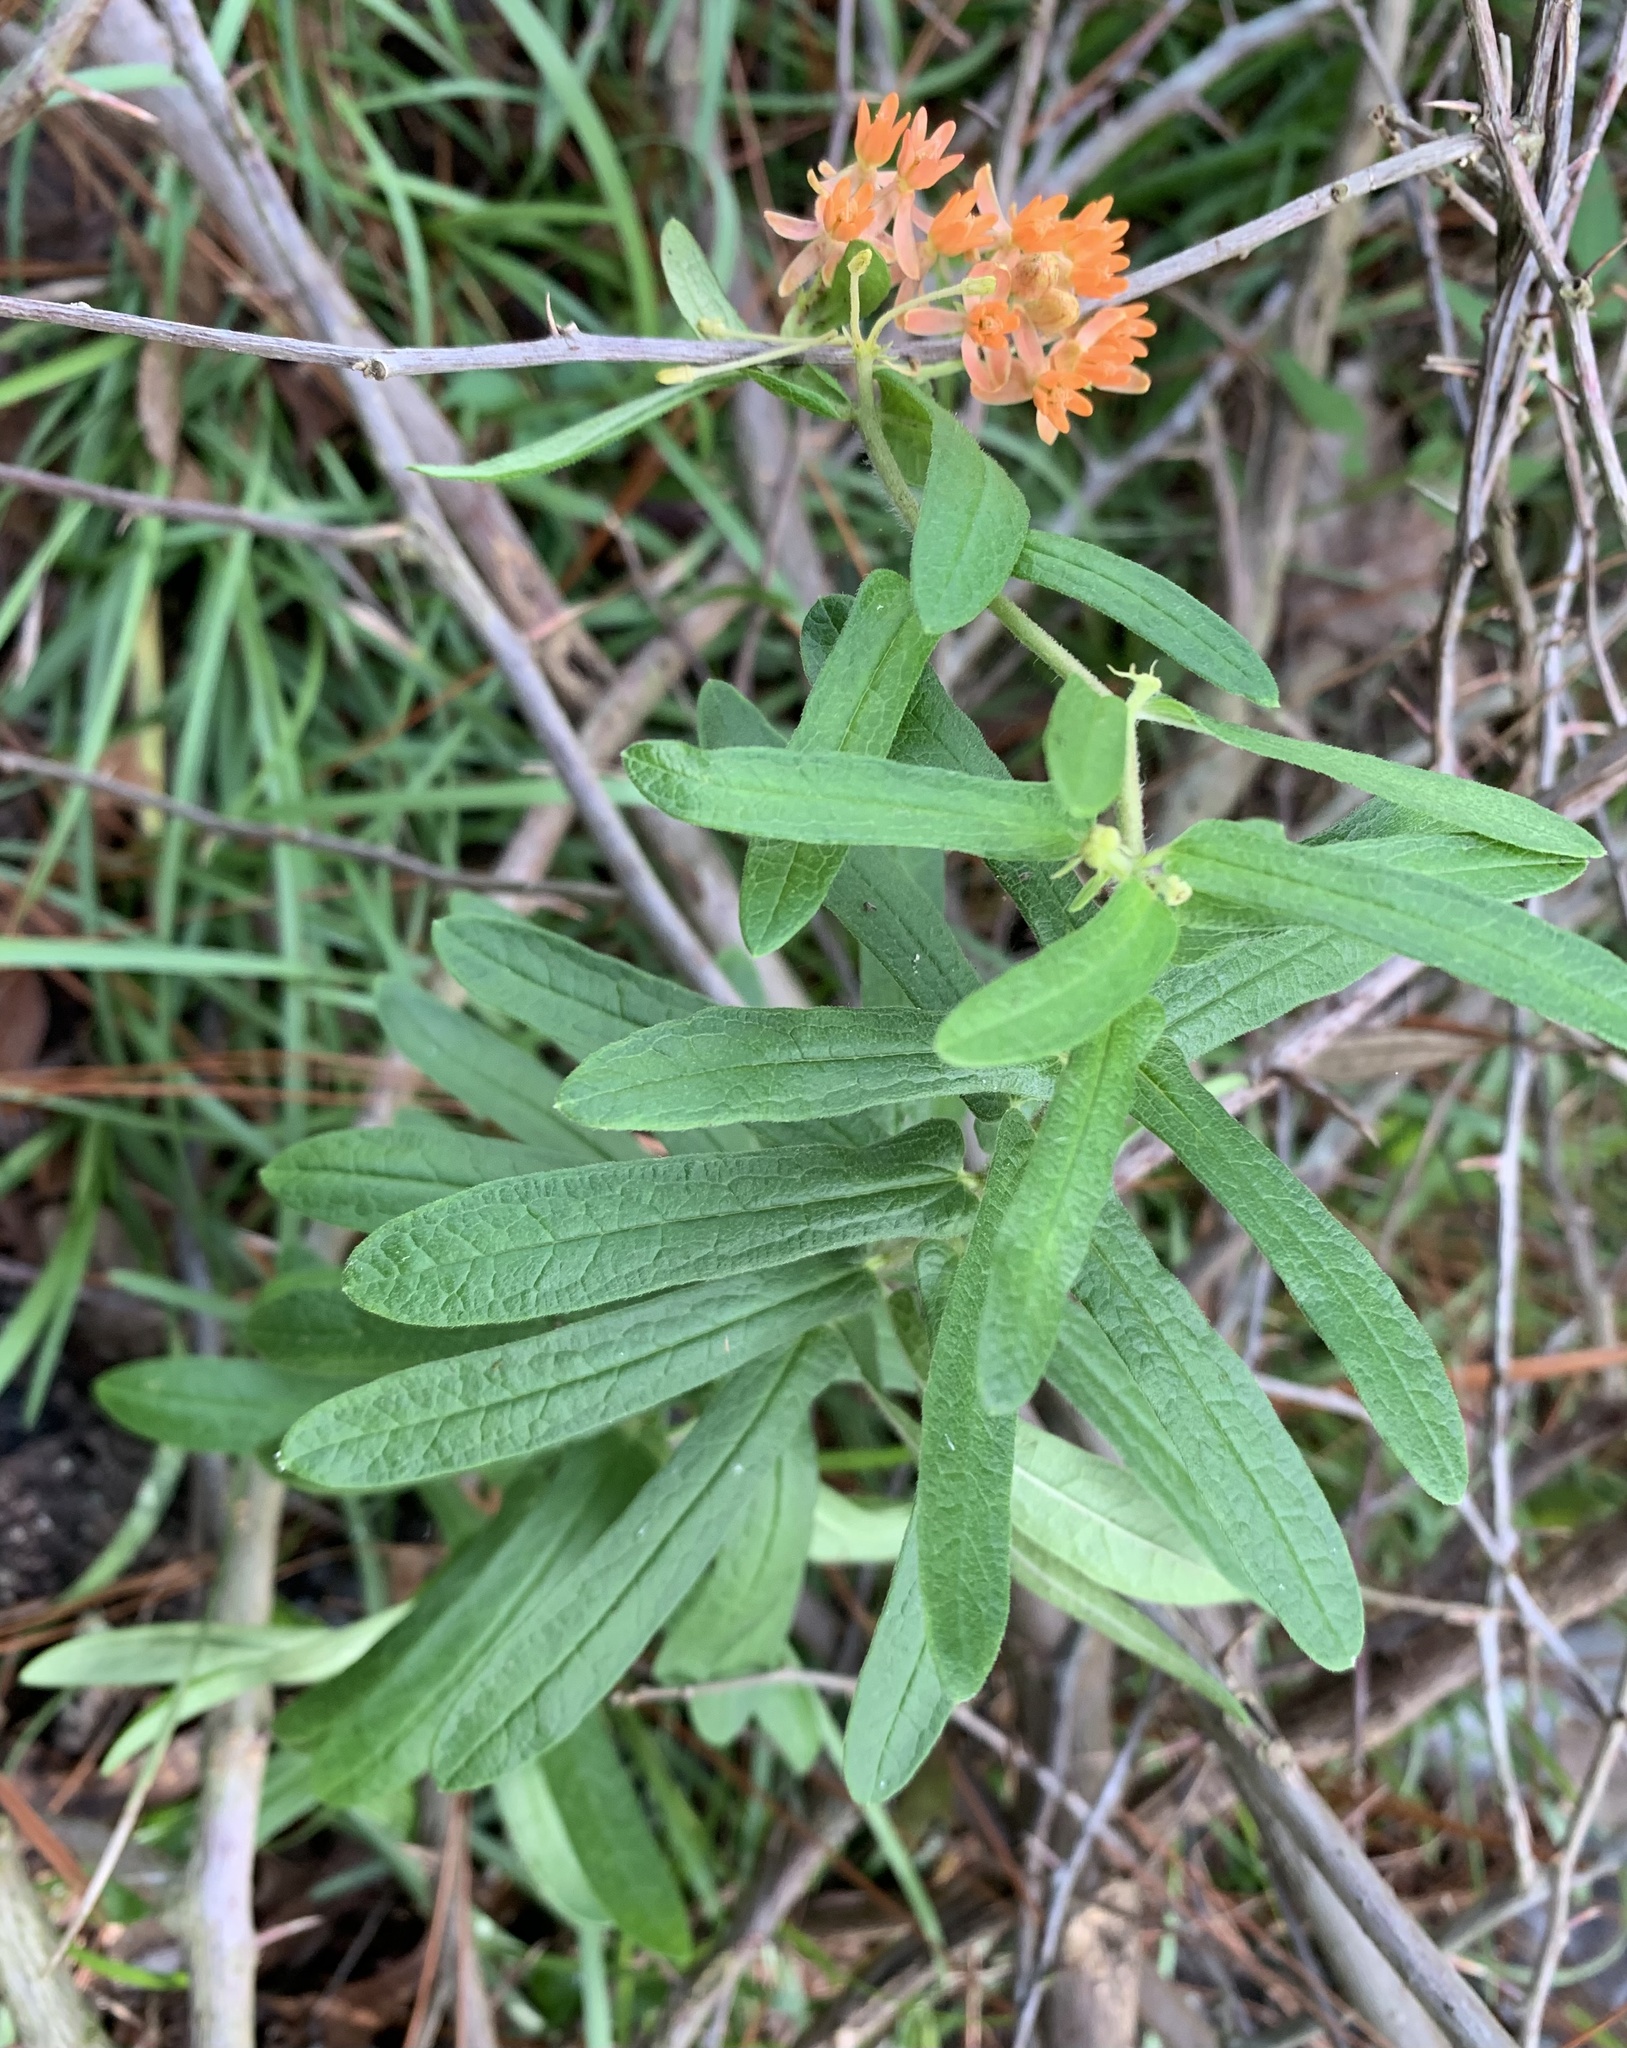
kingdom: Plantae
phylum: Tracheophyta
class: Magnoliopsida
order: Gentianales
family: Apocynaceae
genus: Asclepias
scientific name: Asclepias tuberosa
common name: Butterfly milkweed
